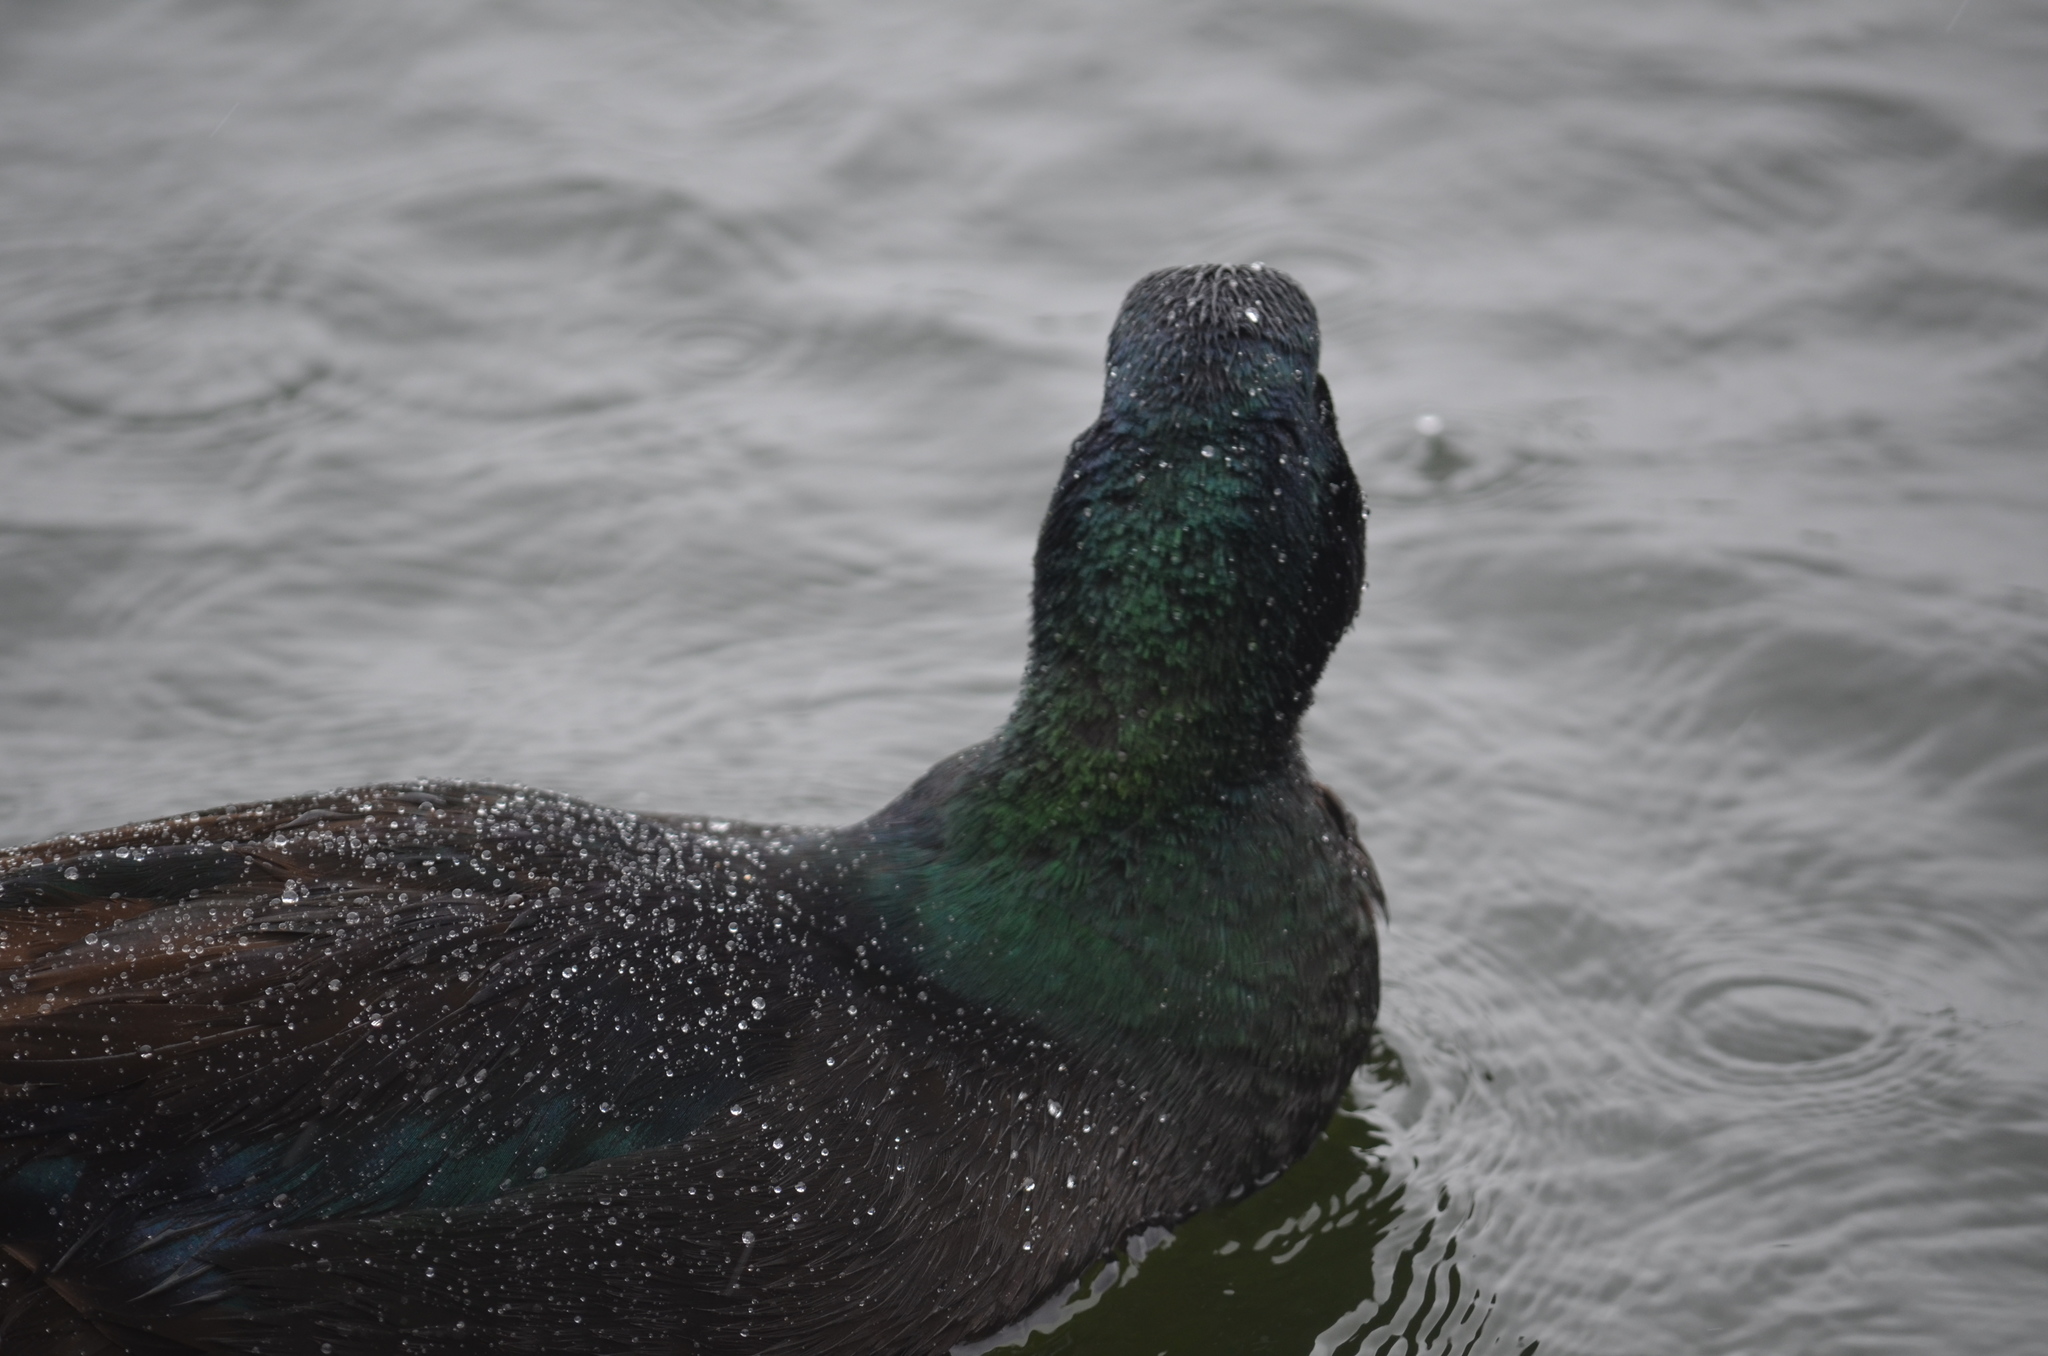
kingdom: Animalia
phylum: Chordata
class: Aves
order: Anseriformes
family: Anatidae
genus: Anas
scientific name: Anas platyrhynchos
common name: Mallard
